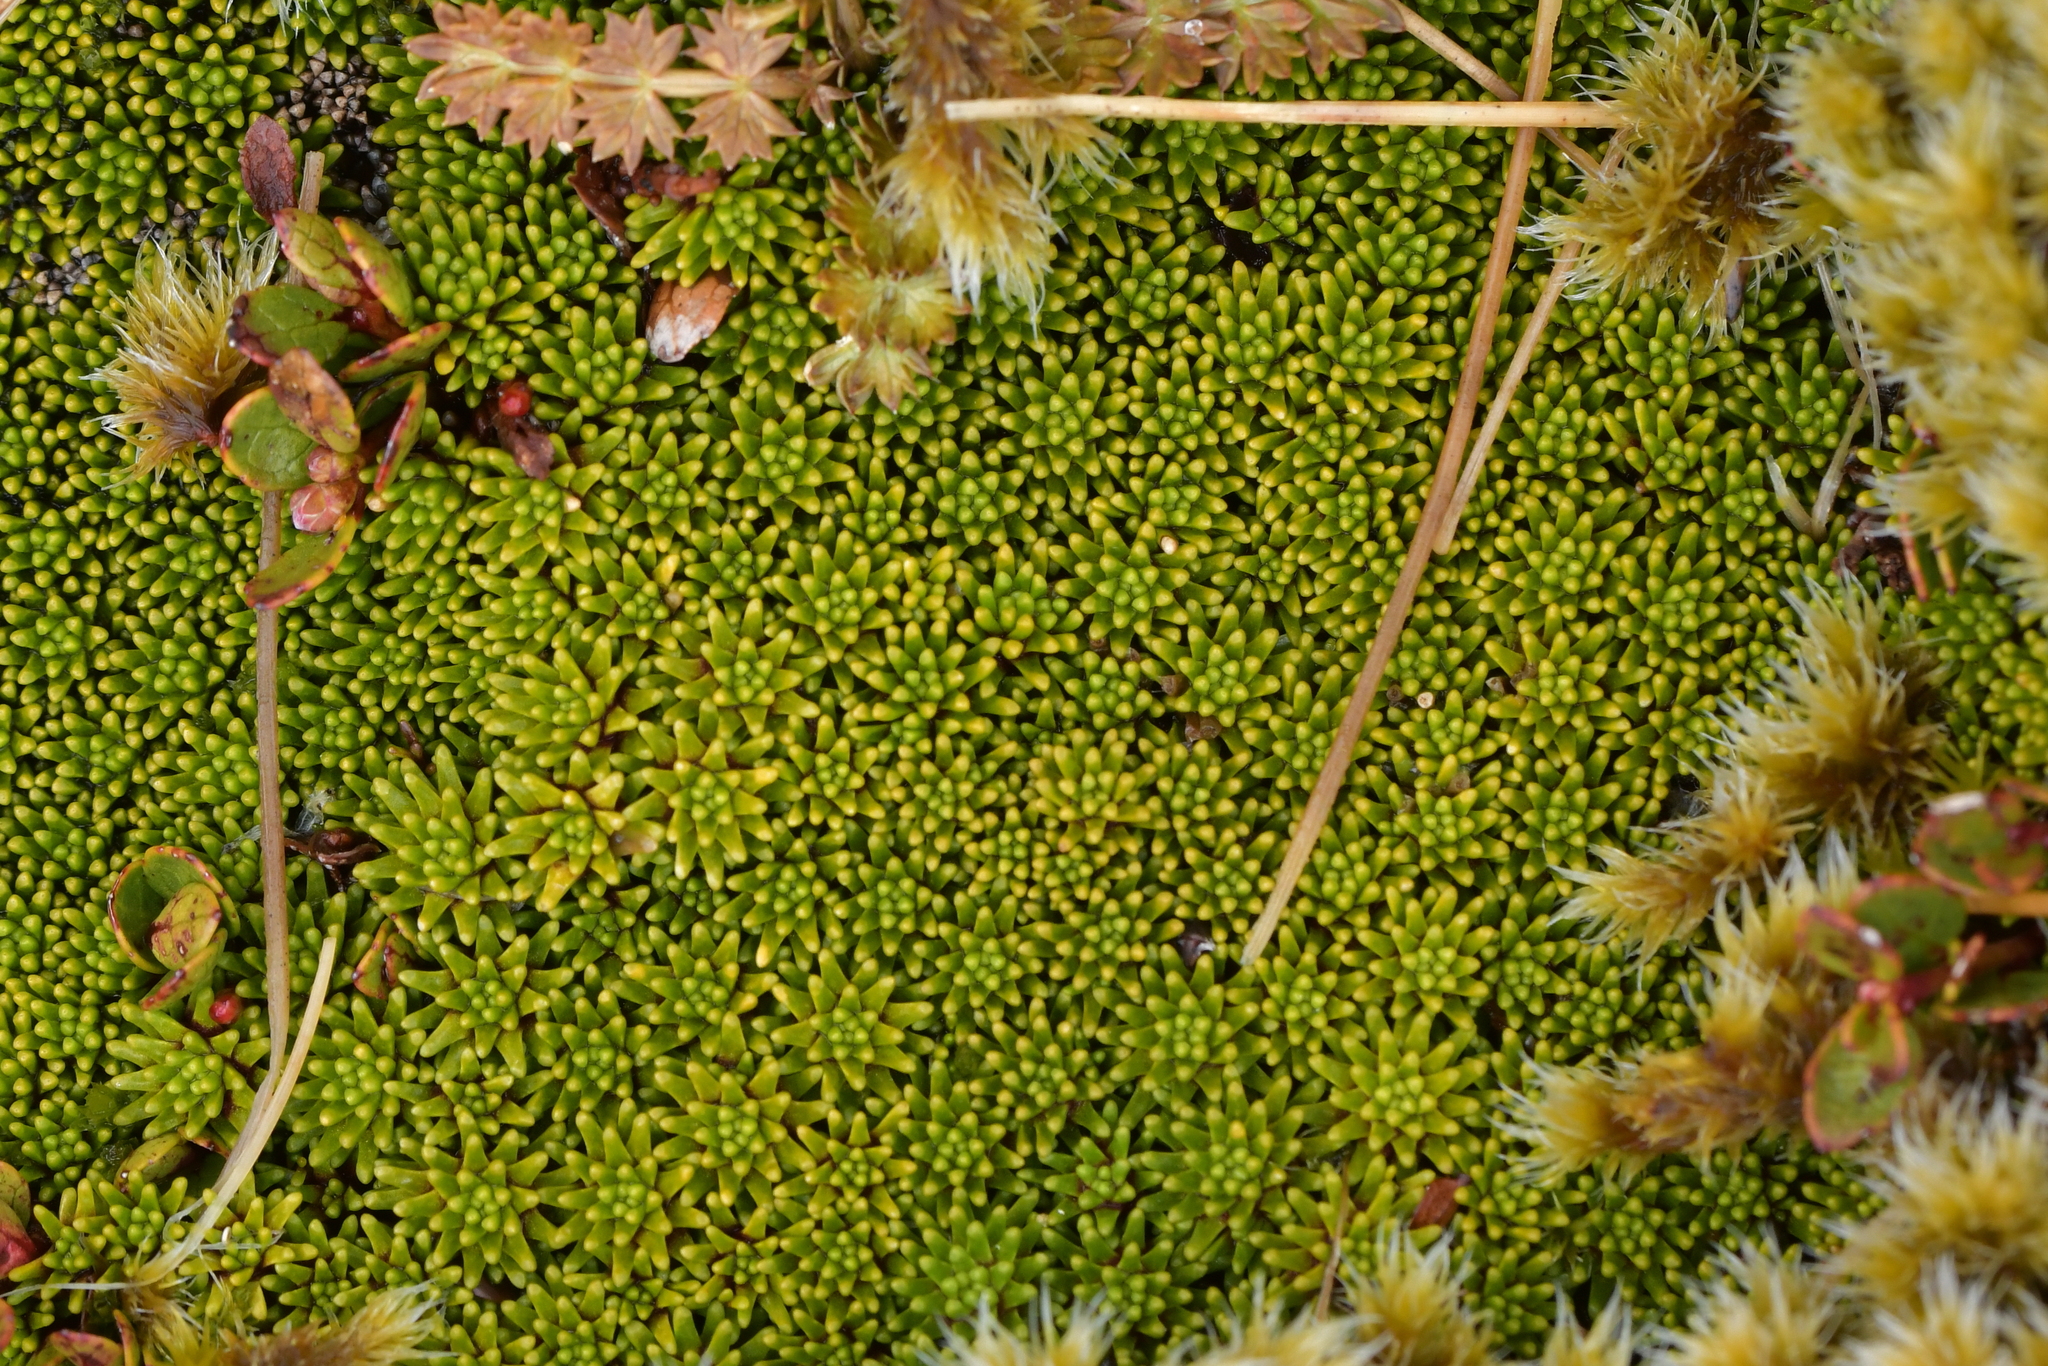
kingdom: Plantae
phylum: Tracheophyta
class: Magnoliopsida
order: Asterales
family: Stylidiaceae
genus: Phyllachne
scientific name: Phyllachne colensoi
